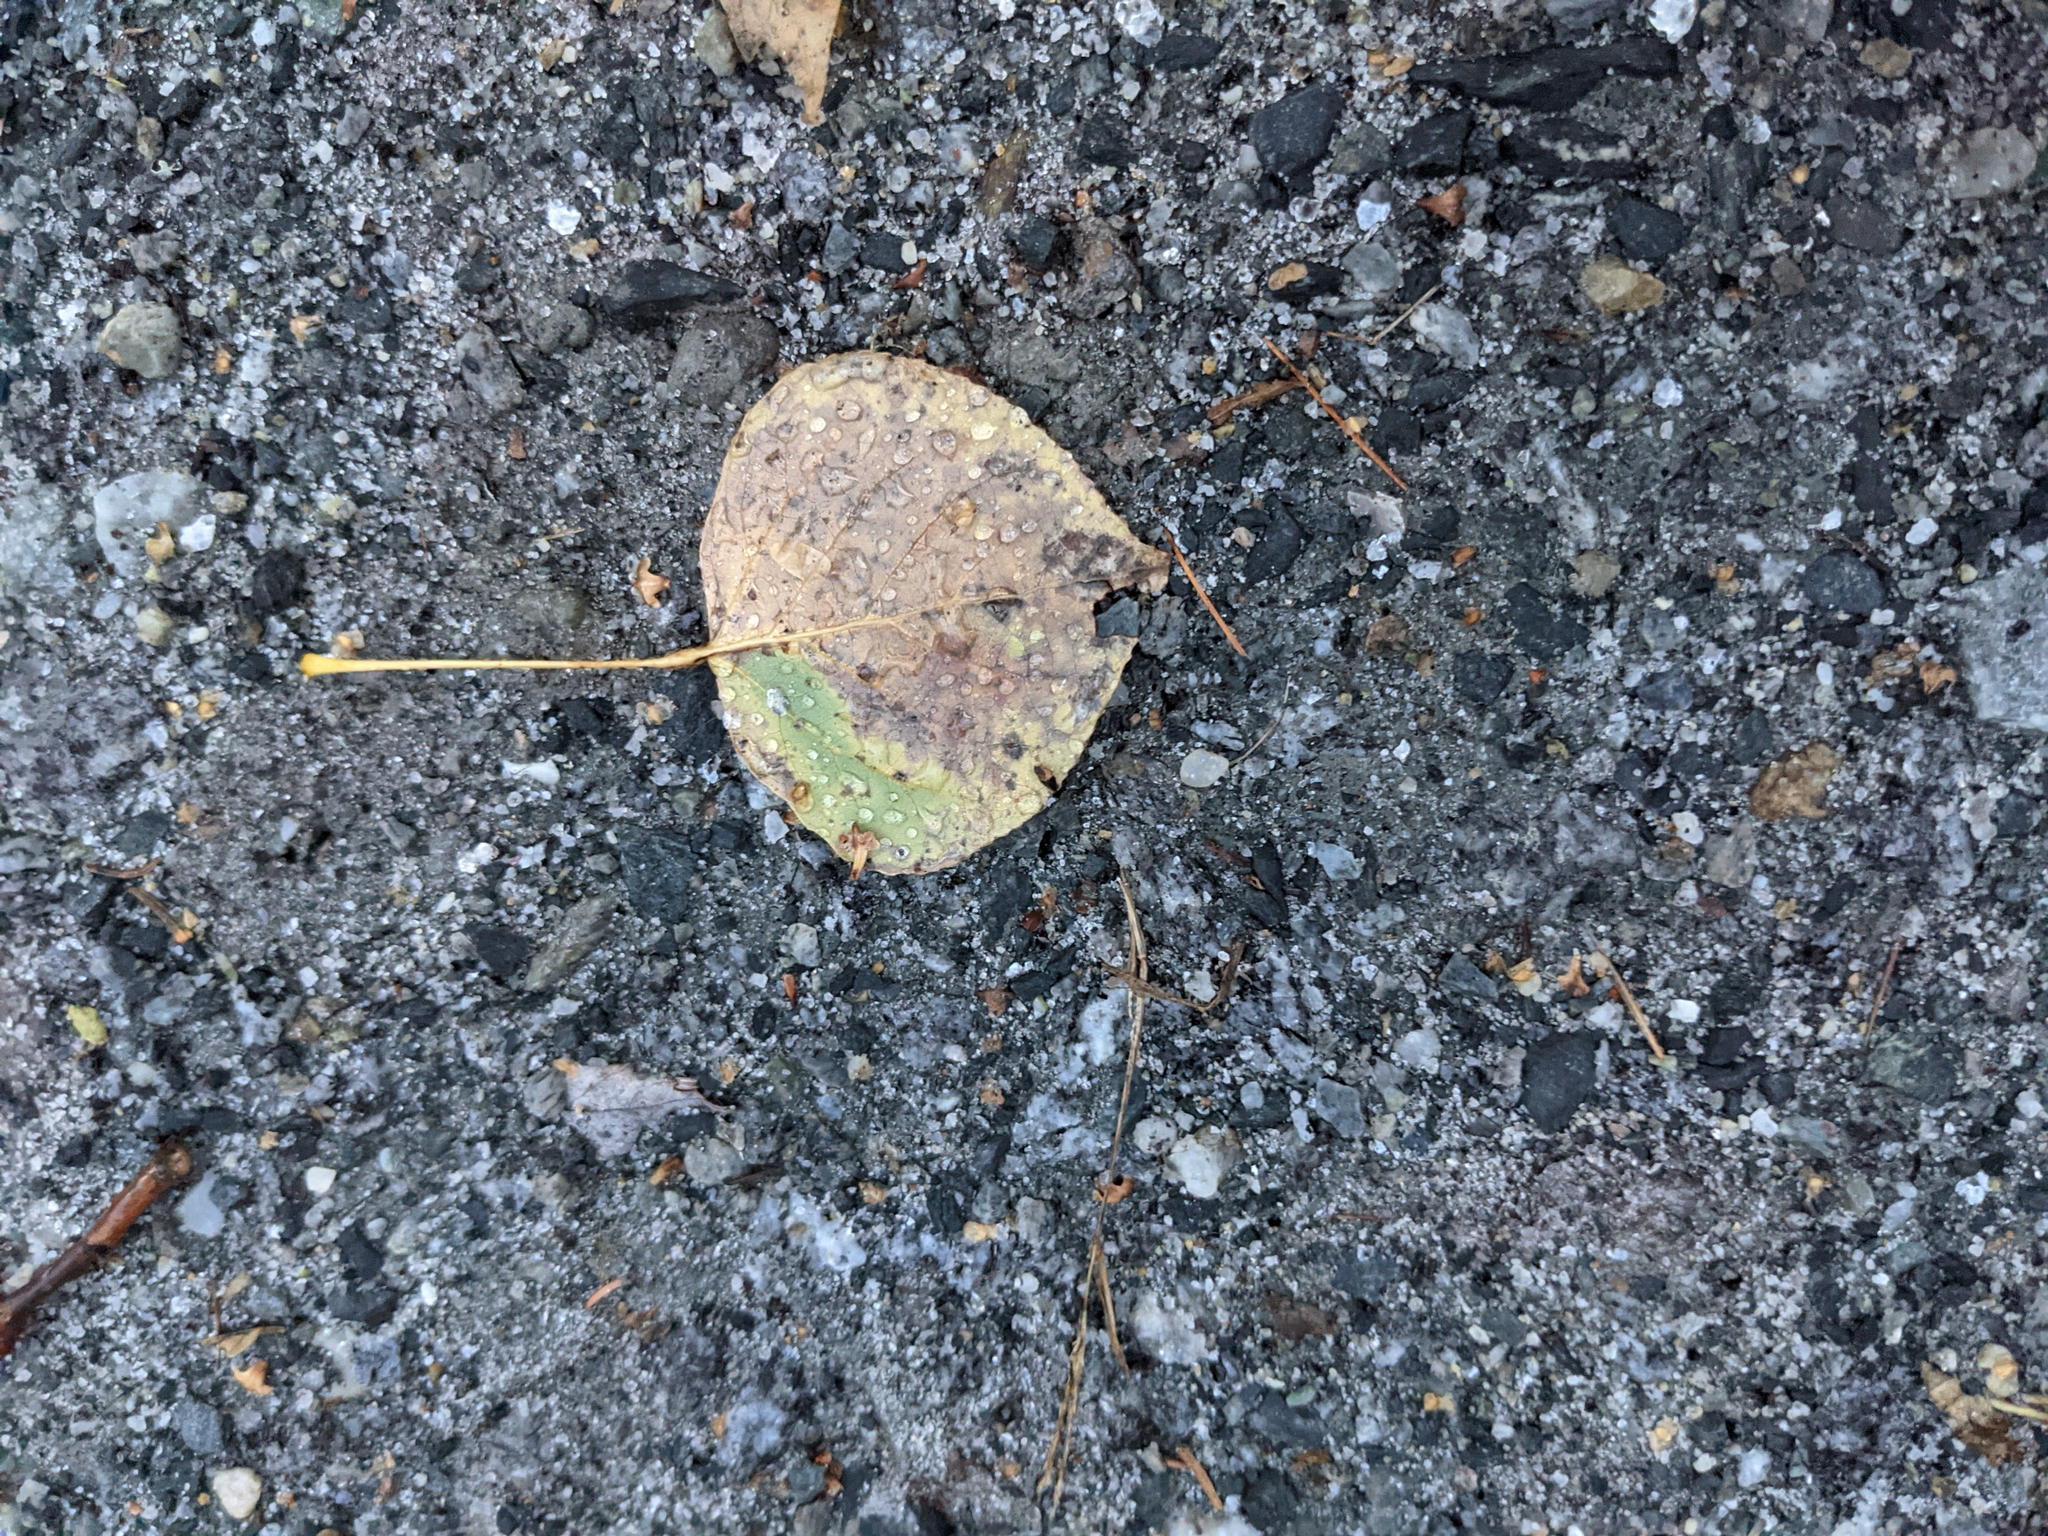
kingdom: Plantae
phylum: Tracheophyta
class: Magnoliopsida
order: Malpighiales
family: Salicaceae
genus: Populus
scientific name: Populus tremuloides
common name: Quaking aspen
